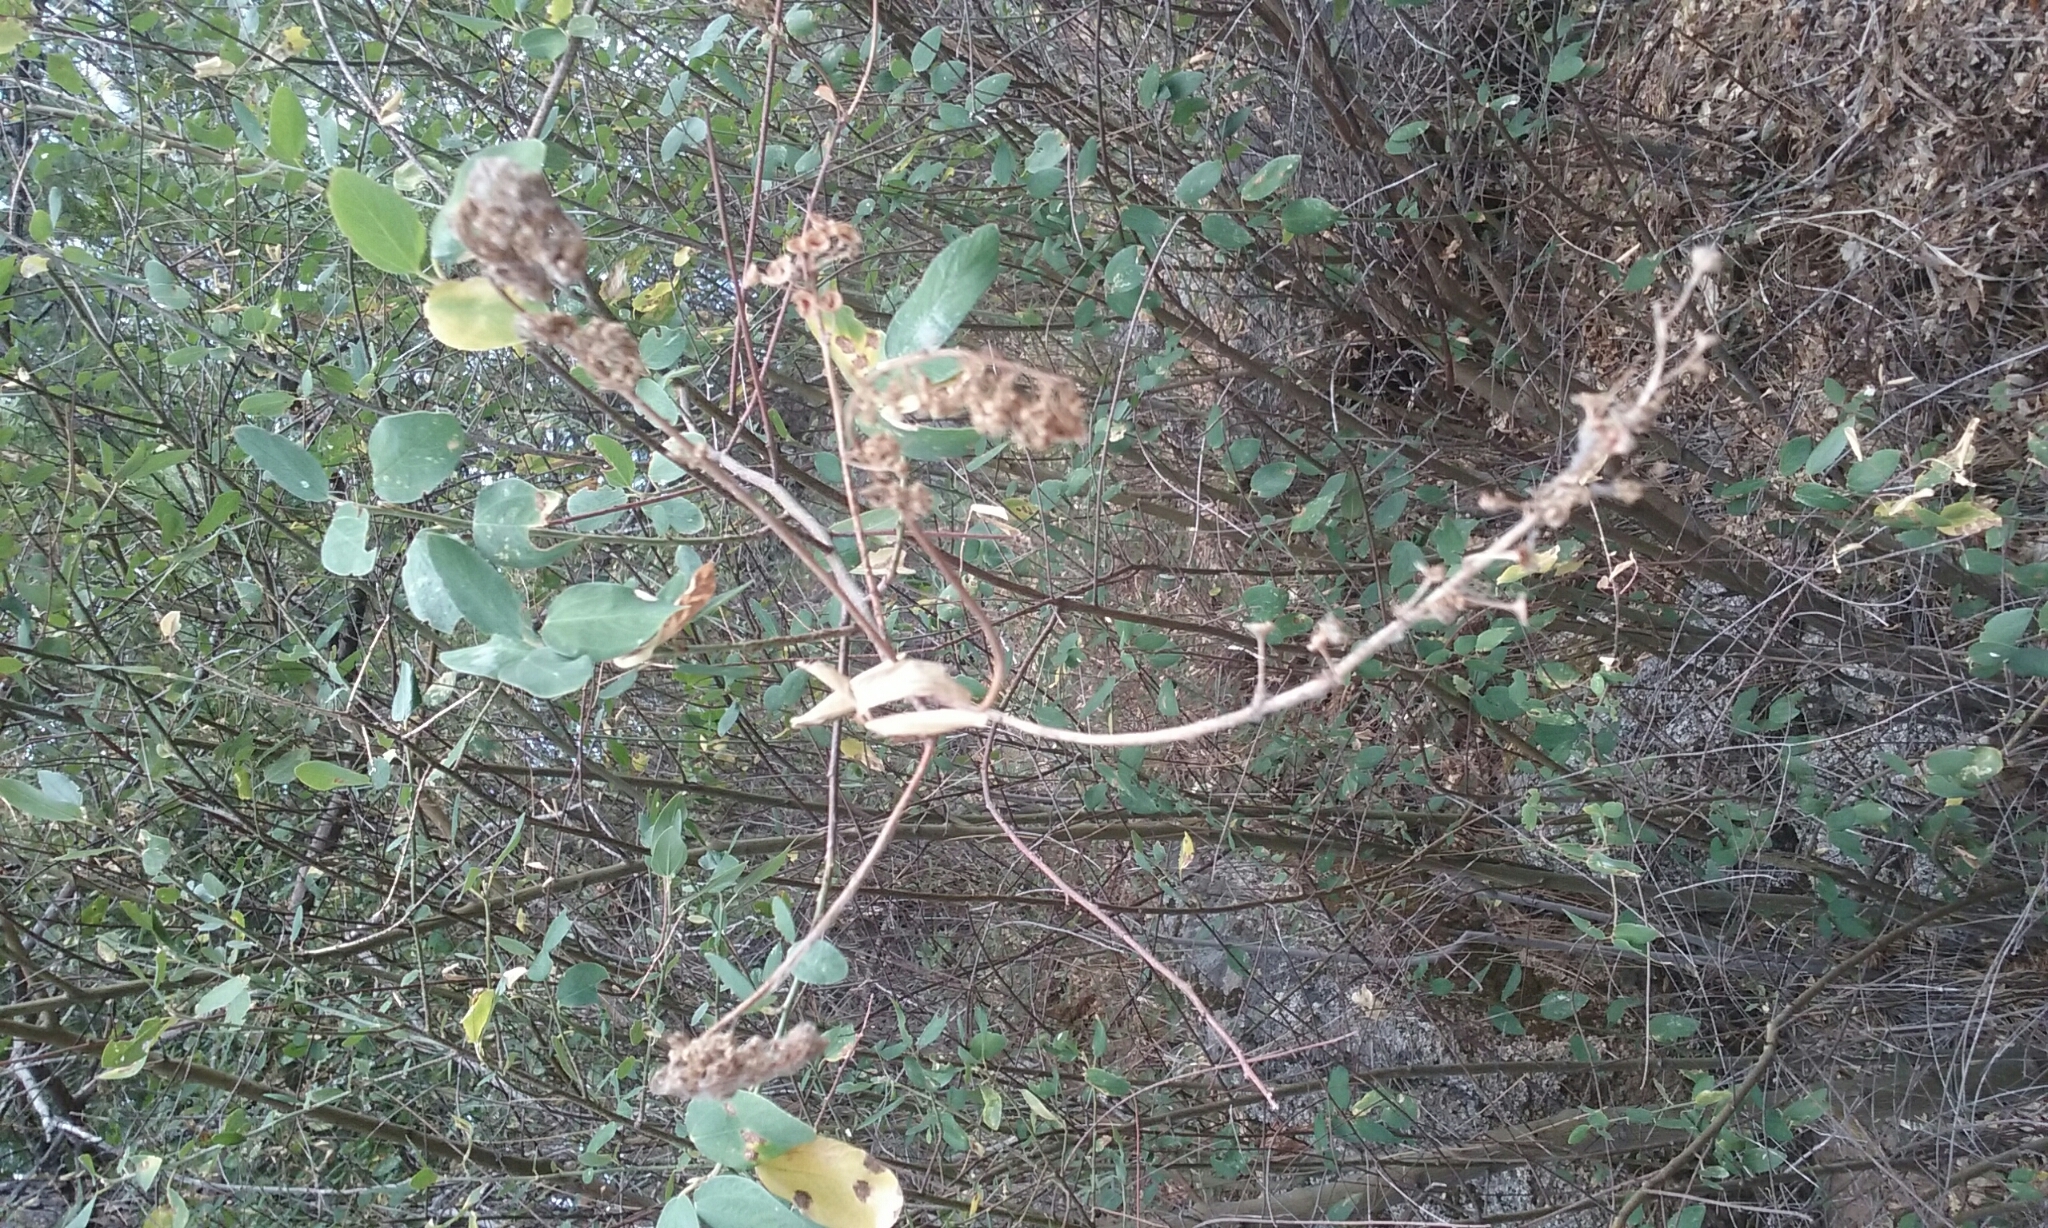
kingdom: Plantae
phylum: Tracheophyta
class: Magnoliopsida
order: Rosales
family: Rhamnaceae
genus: Ceanothus
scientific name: Ceanothus integerrimus
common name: Deerbrush ceanothus
